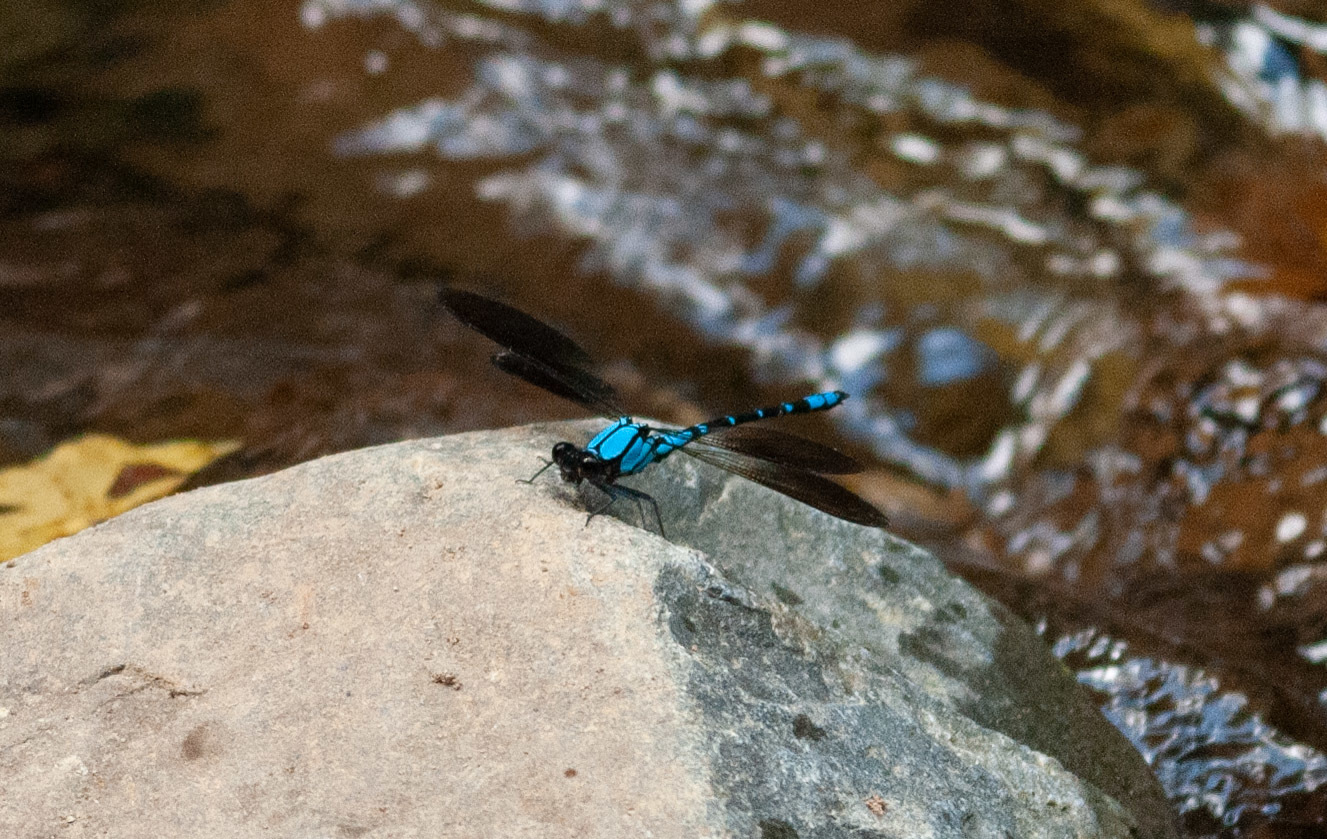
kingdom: Animalia
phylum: Arthropoda
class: Insecta
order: Odonata
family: Lestoideidae
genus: Diphlebia
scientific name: Diphlebia coerulescens
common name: Sapphire rockmaster
